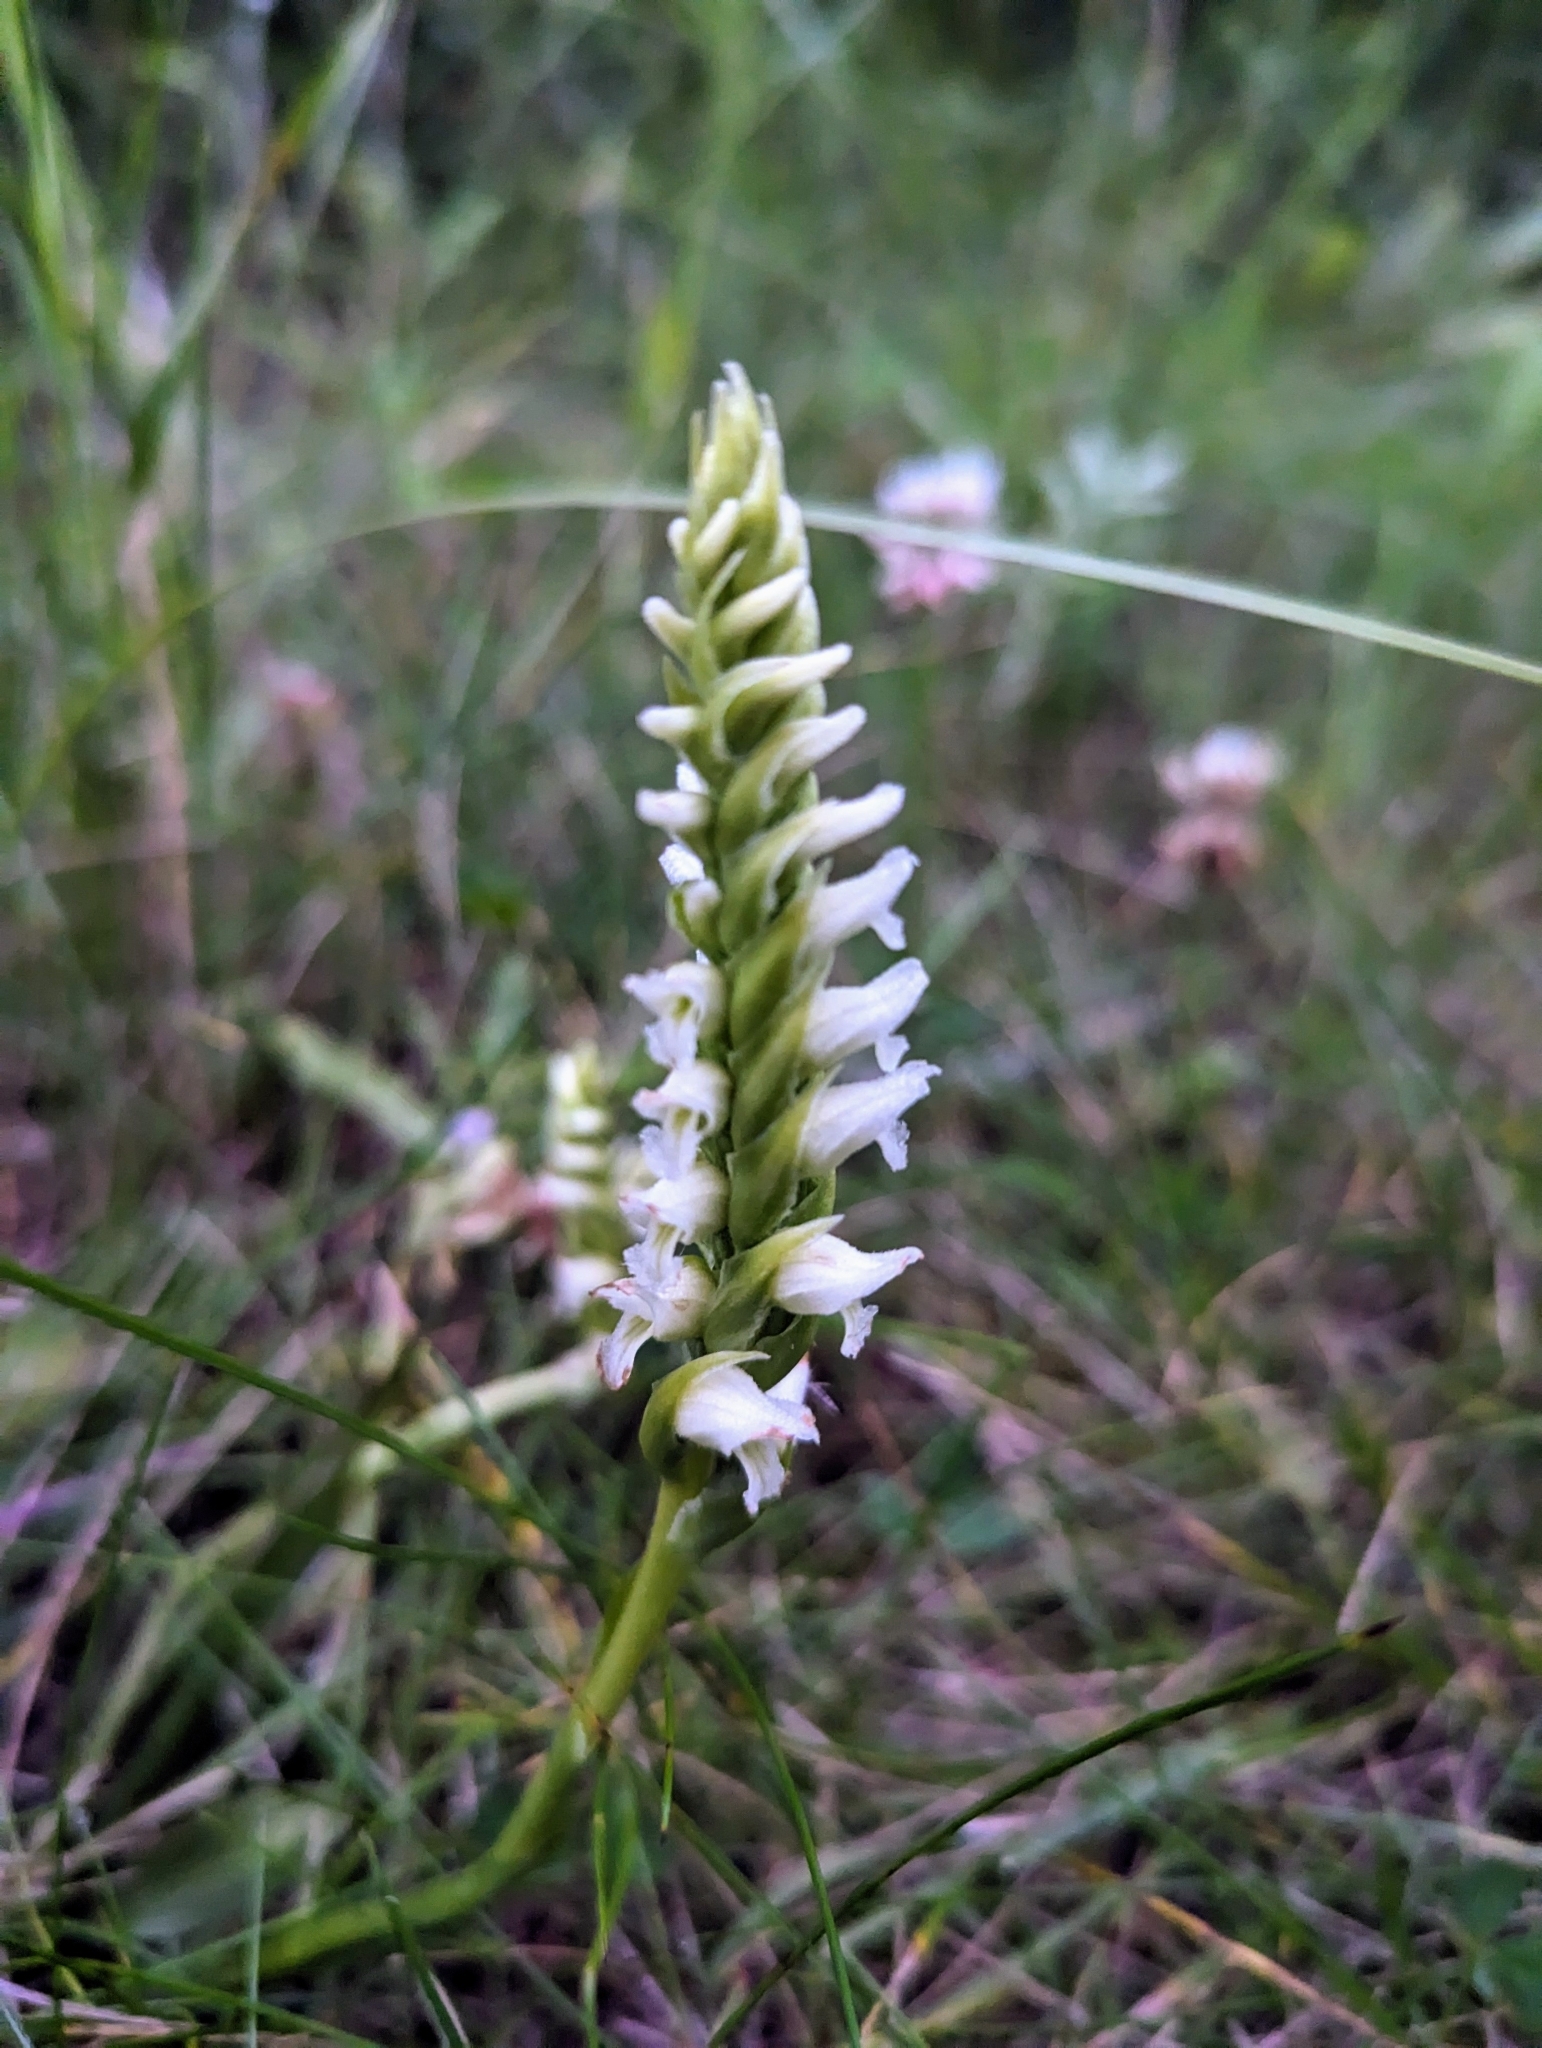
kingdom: Plantae
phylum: Tracheophyta
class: Liliopsida
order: Asparagales
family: Orchidaceae
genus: Spiranthes
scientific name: Spiranthes romanzoffiana
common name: Irish lady's-tresses
